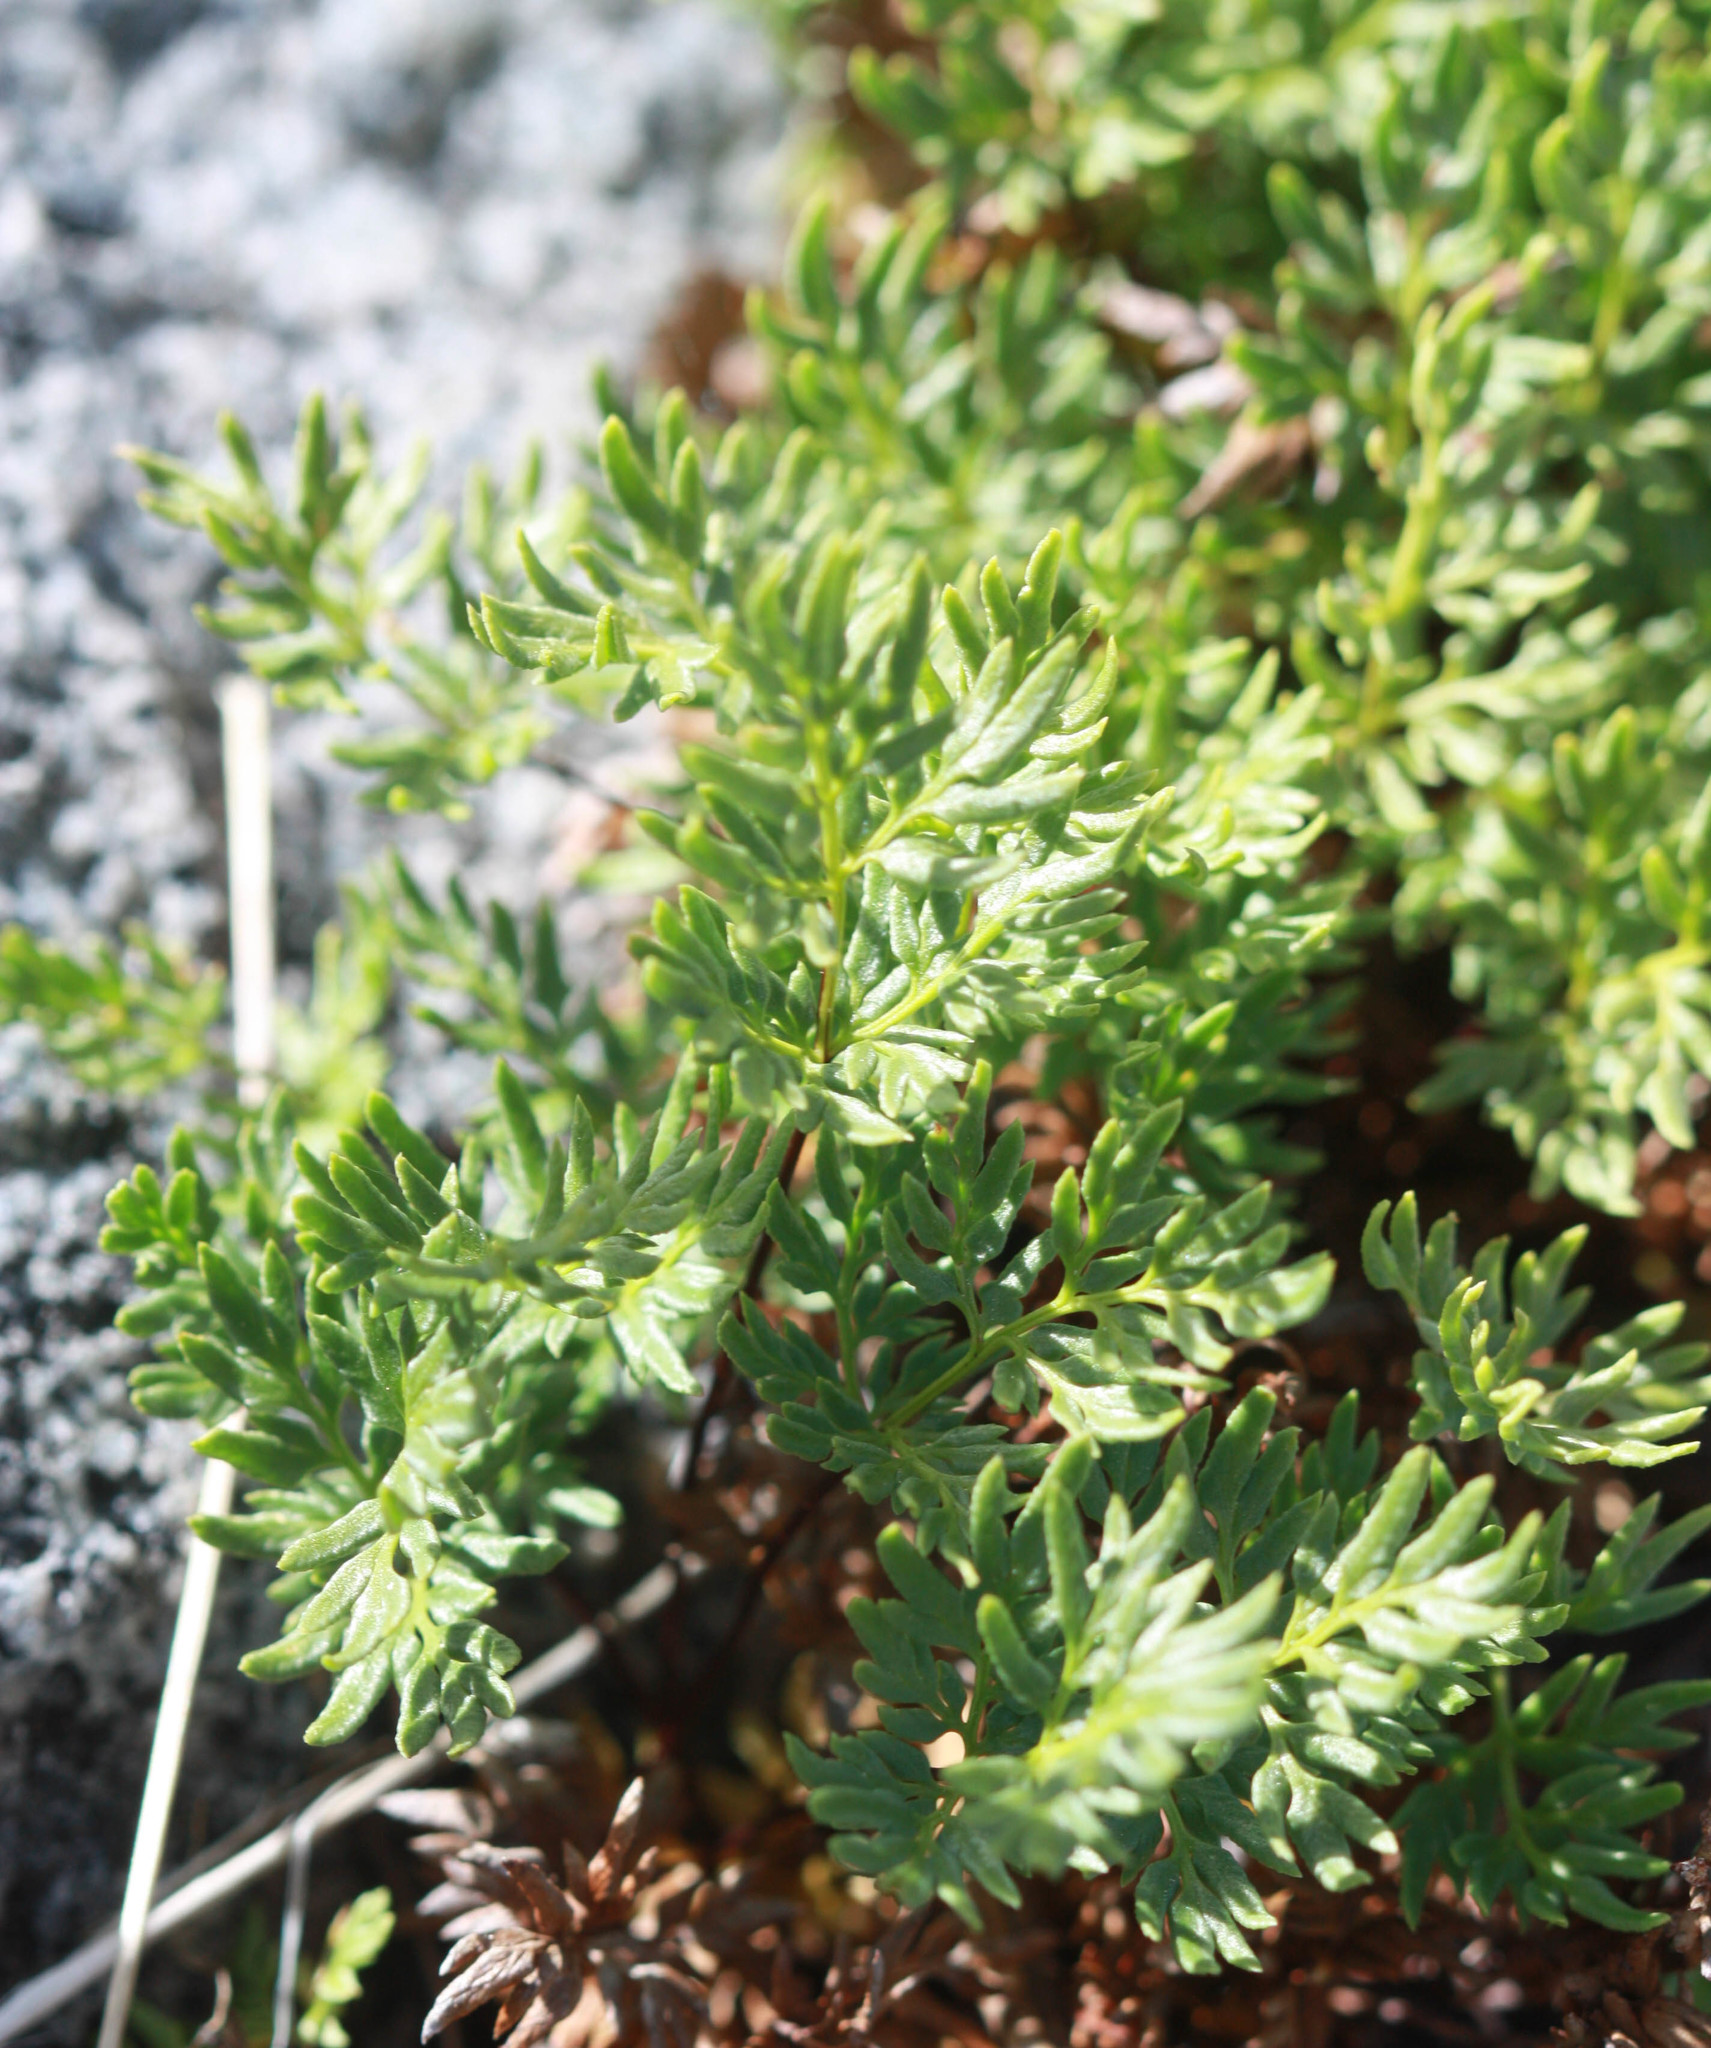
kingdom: Plantae
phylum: Tracheophyta
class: Polypodiopsida
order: Polypodiales
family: Pteridaceae
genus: Aspidotis
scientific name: Aspidotis densa
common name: Indian's dream
